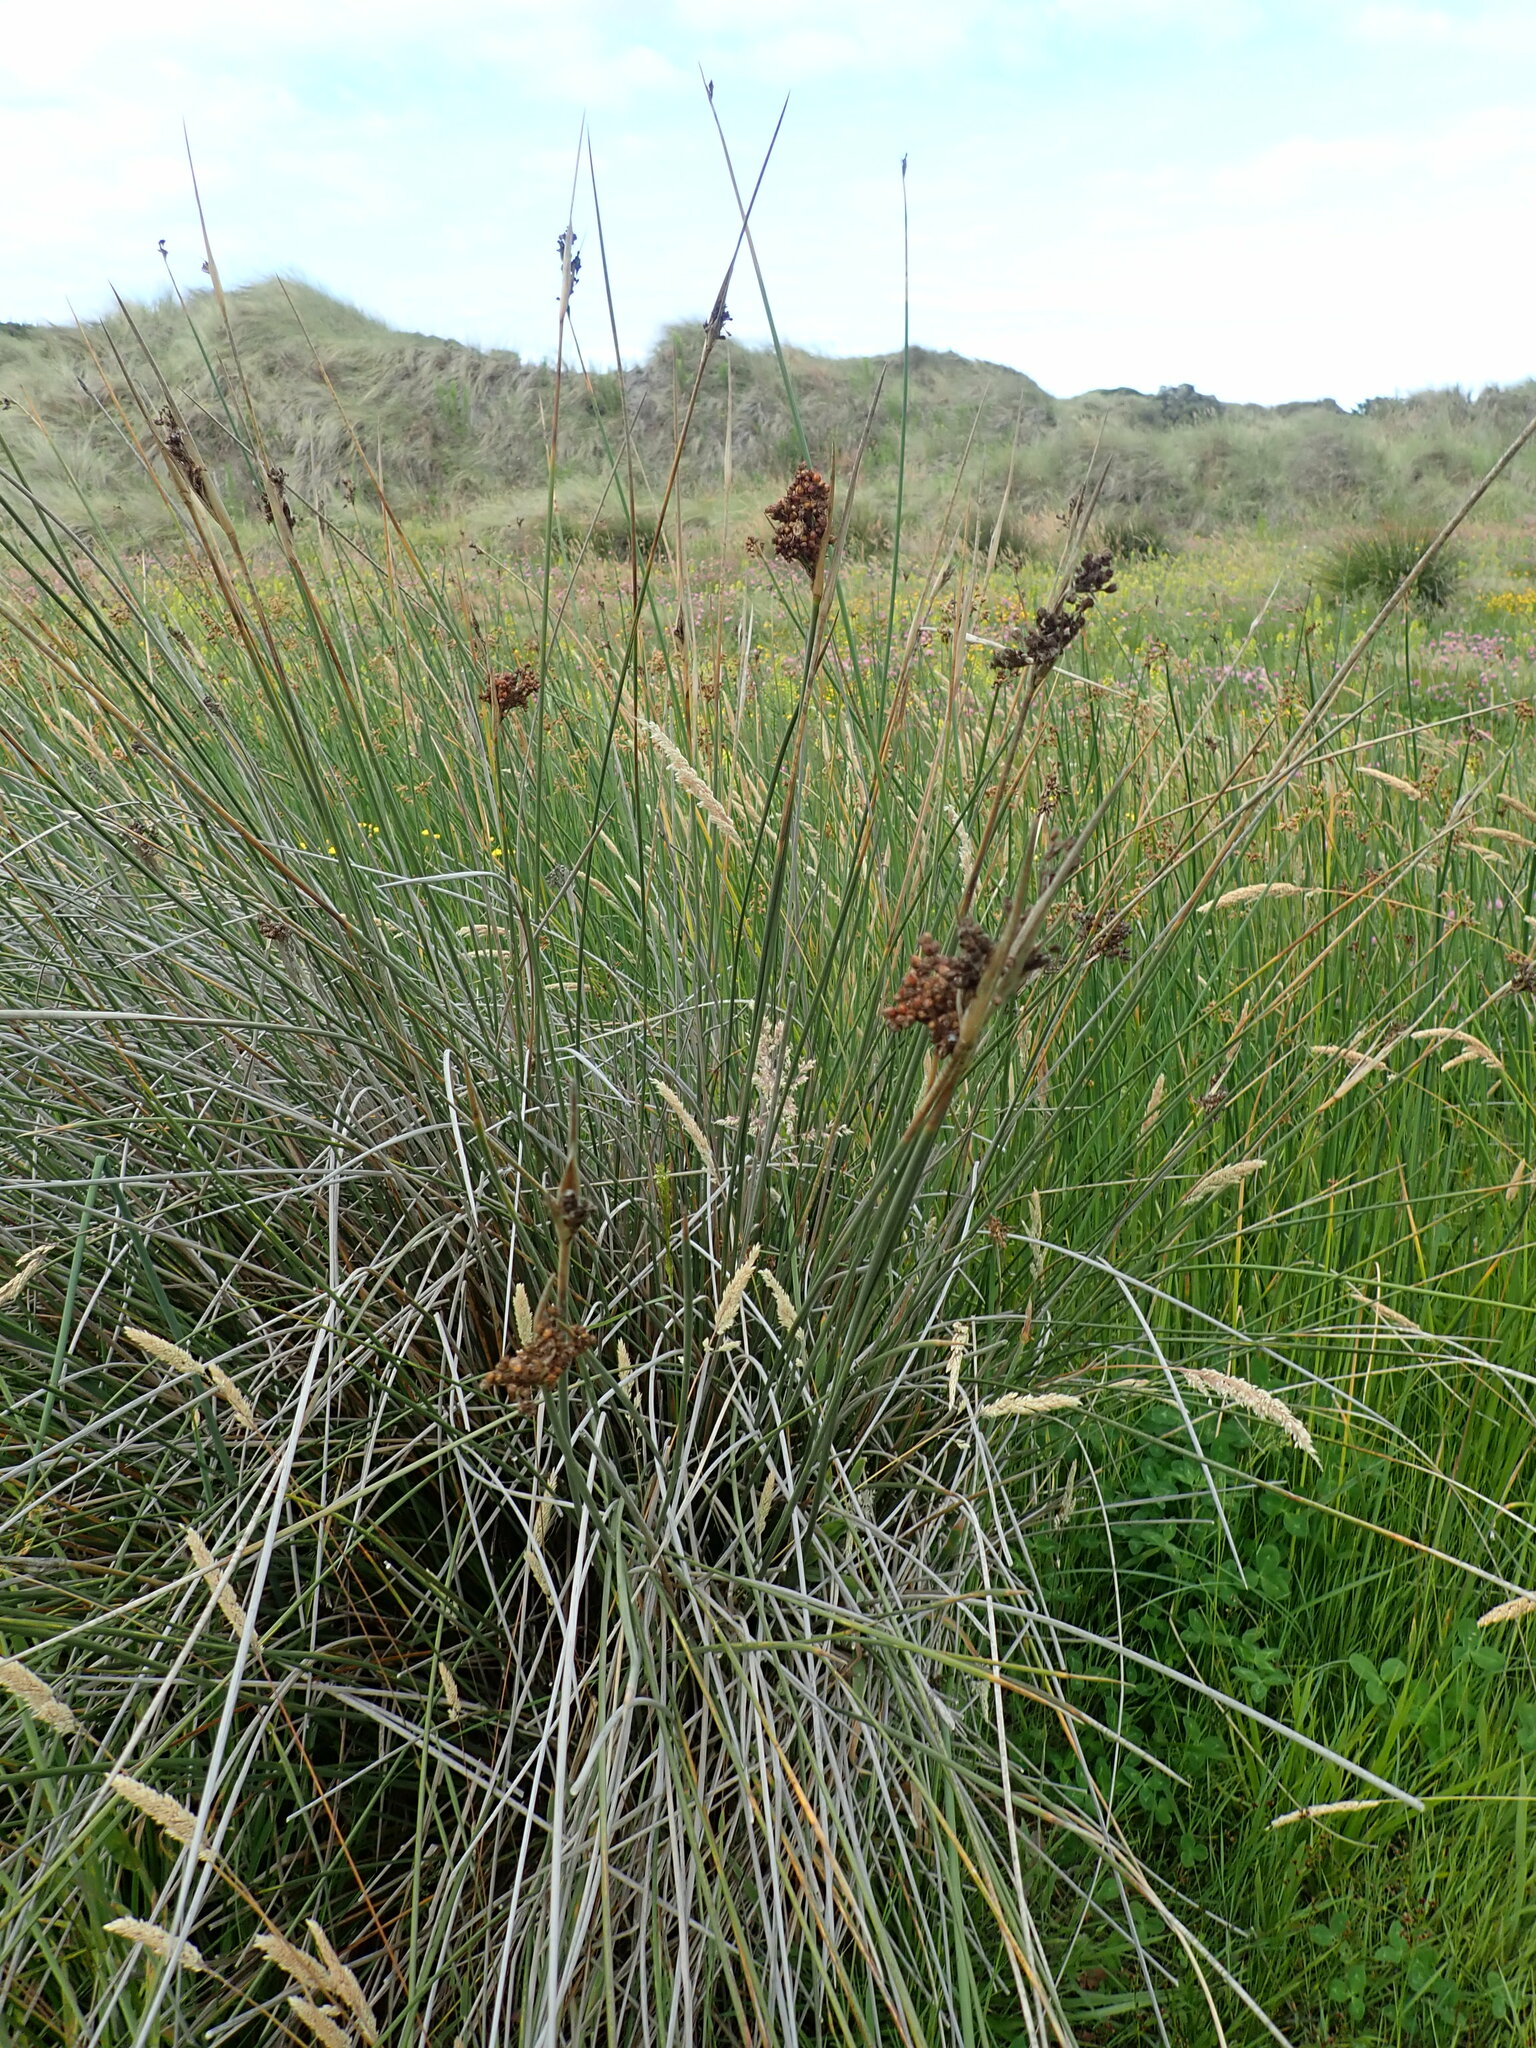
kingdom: Plantae
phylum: Tracheophyta
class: Liliopsida
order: Poales
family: Juncaceae
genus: Juncus
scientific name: Juncus acutus
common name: Sharp rush
